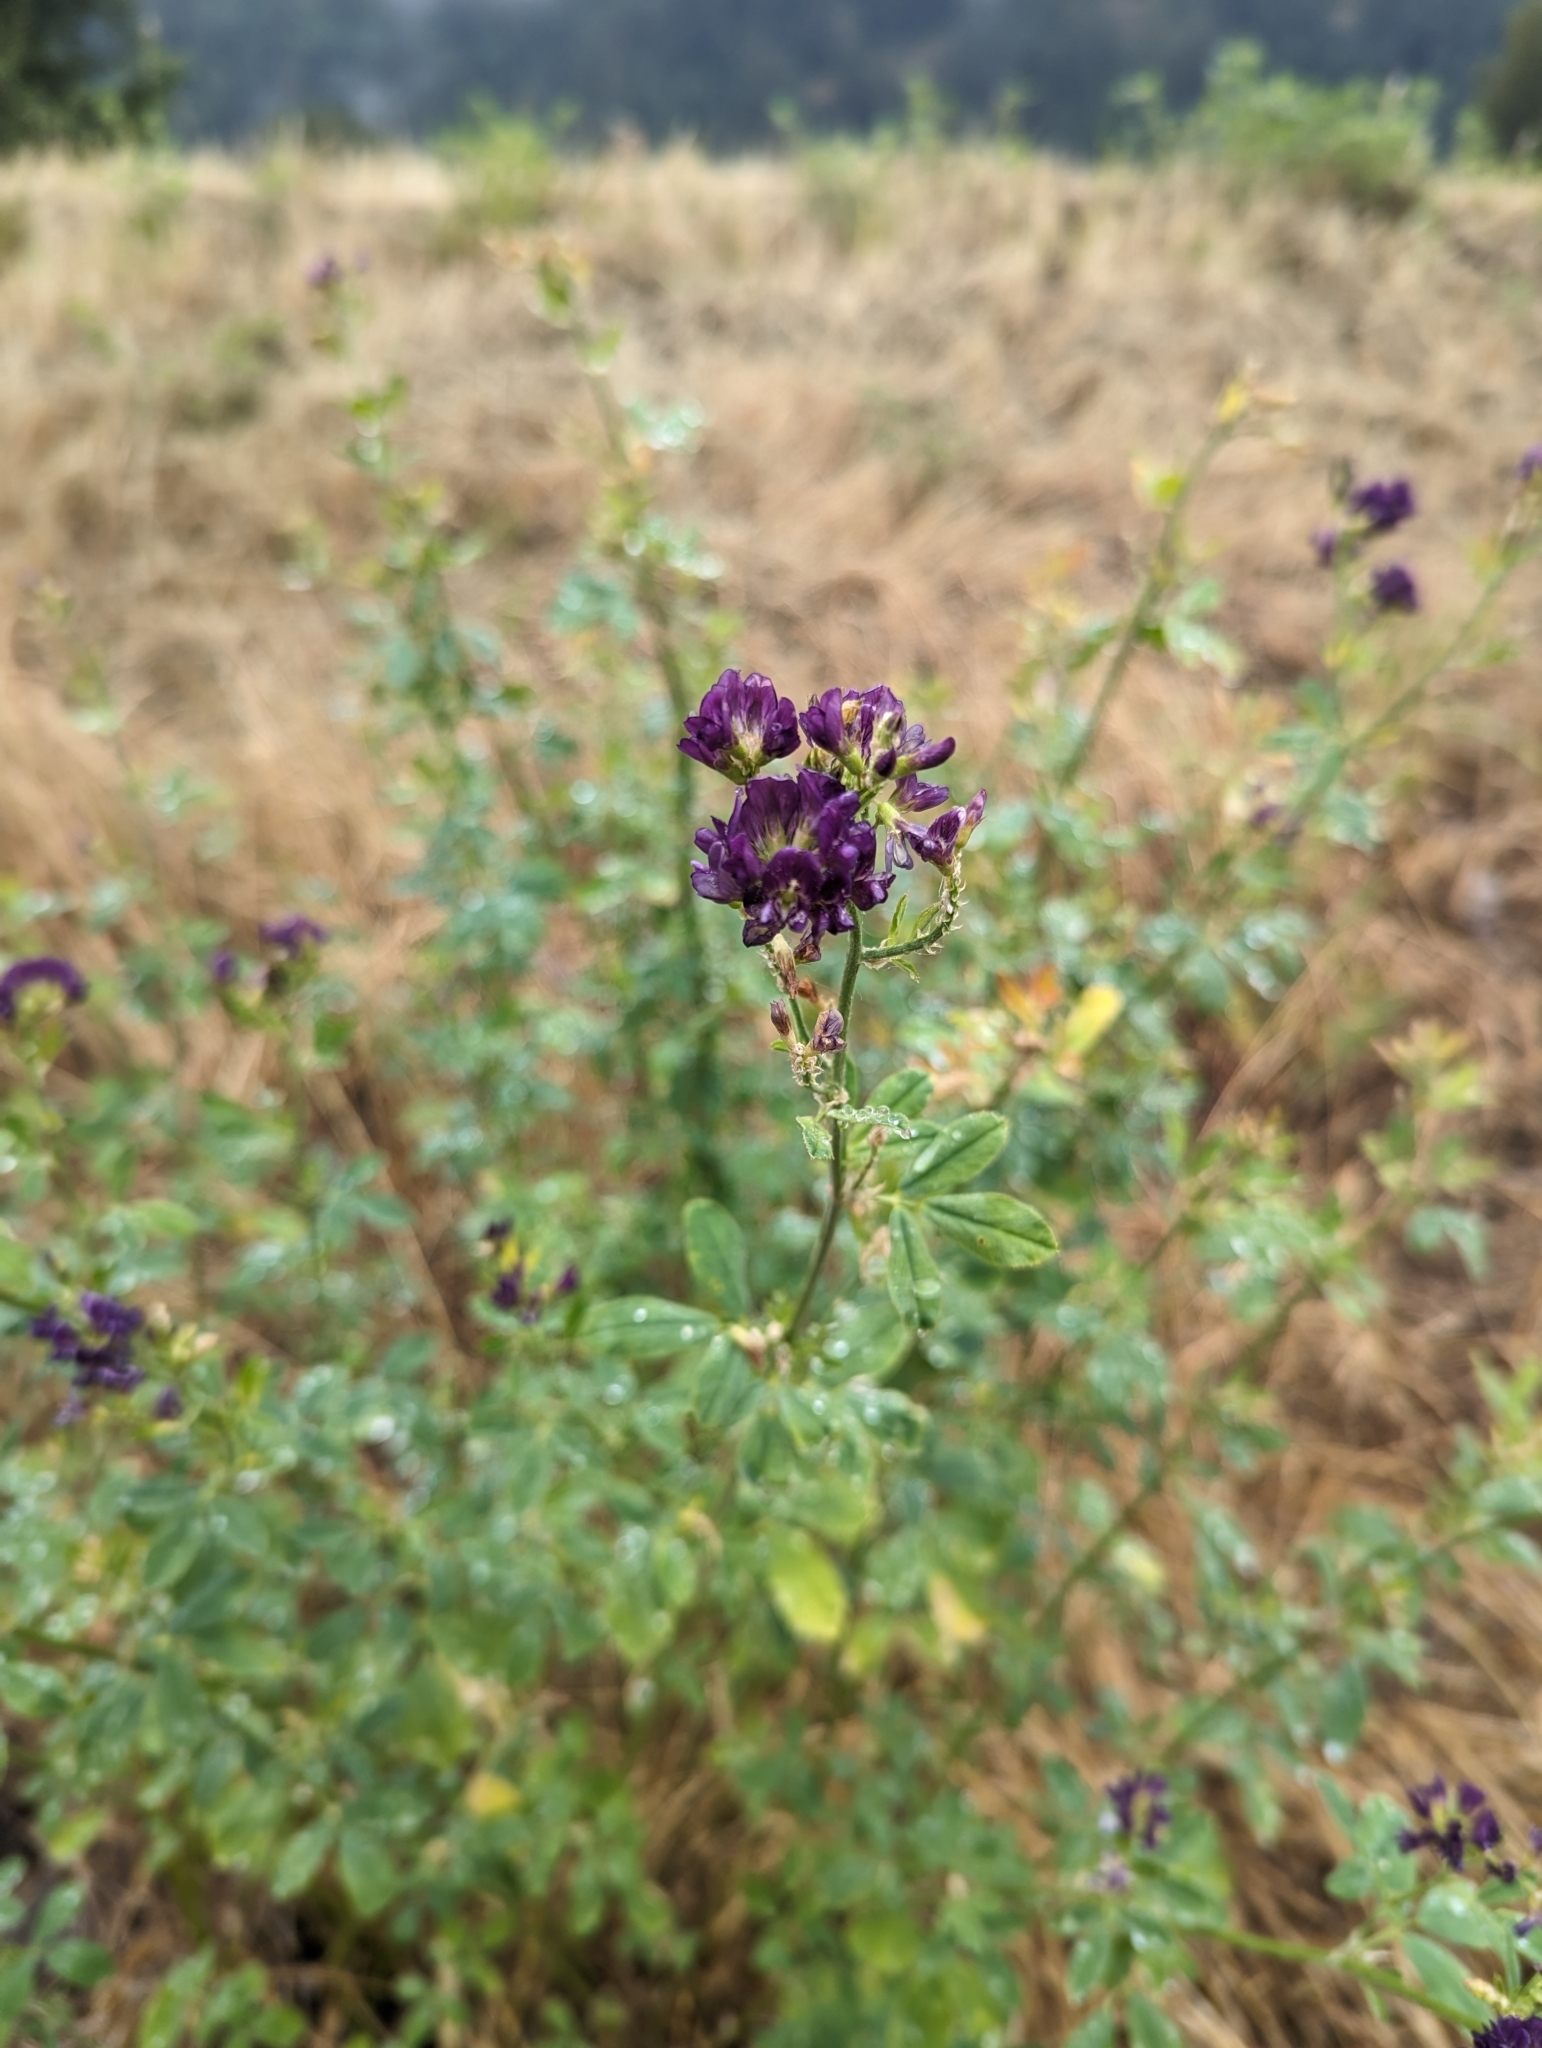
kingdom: Plantae
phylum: Tracheophyta
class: Magnoliopsida
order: Fabales
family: Fabaceae
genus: Medicago
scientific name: Medicago sativa
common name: Alfalfa
